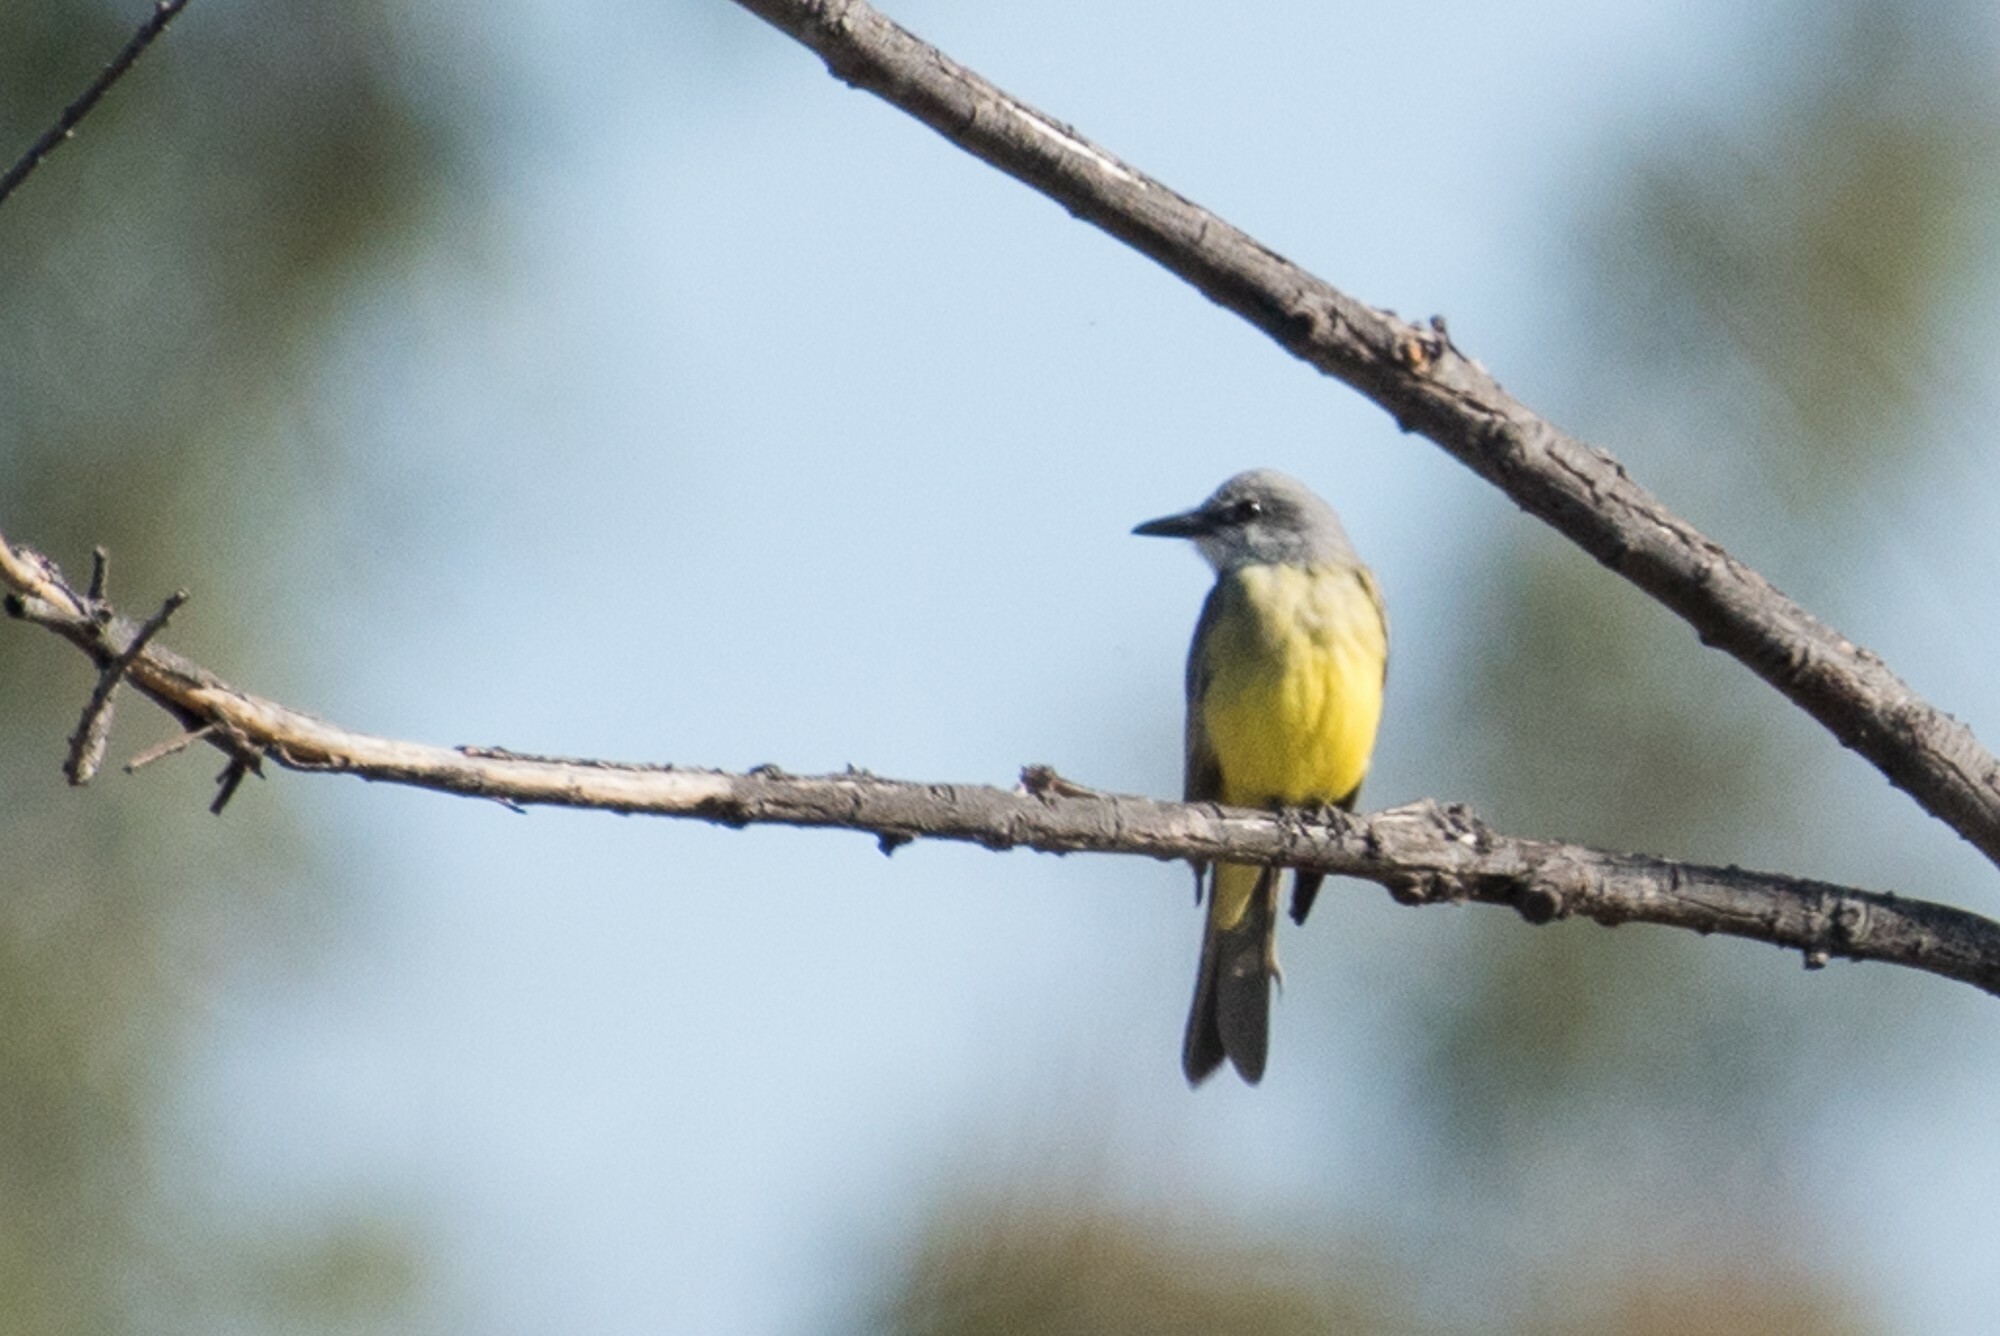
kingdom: Animalia
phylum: Chordata
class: Aves
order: Passeriformes
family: Tyrannidae
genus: Tyrannus
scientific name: Tyrannus melancholicus
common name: Tropical kingbird
